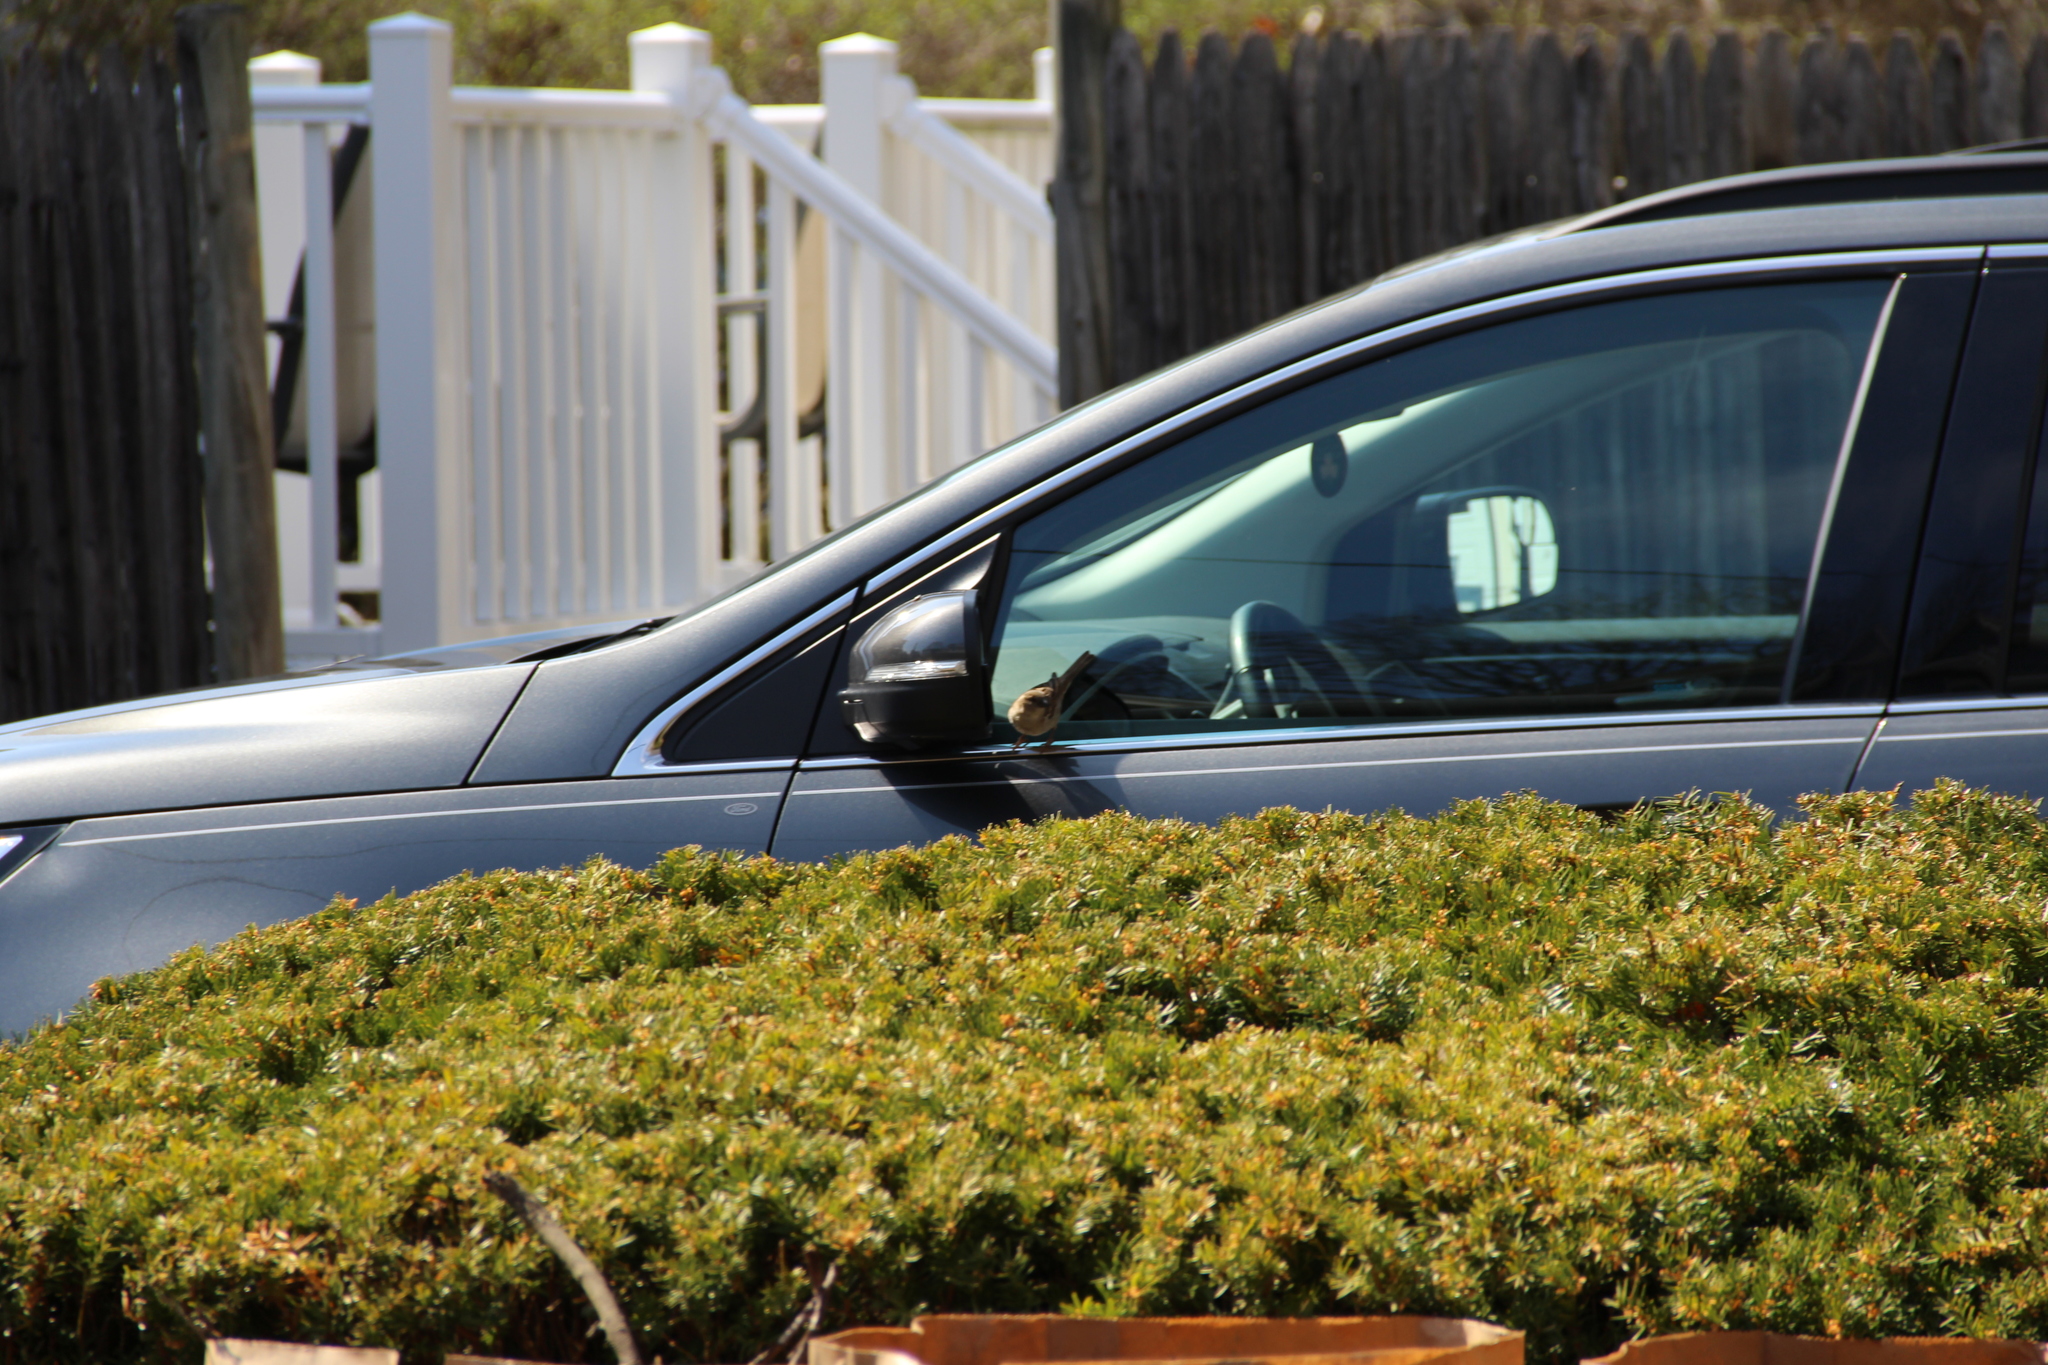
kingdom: Animalia
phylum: Chordata
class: Aves
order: Passeriformes
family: Passeridae
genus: Passer
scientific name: Passer domesticus
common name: House sparrow
